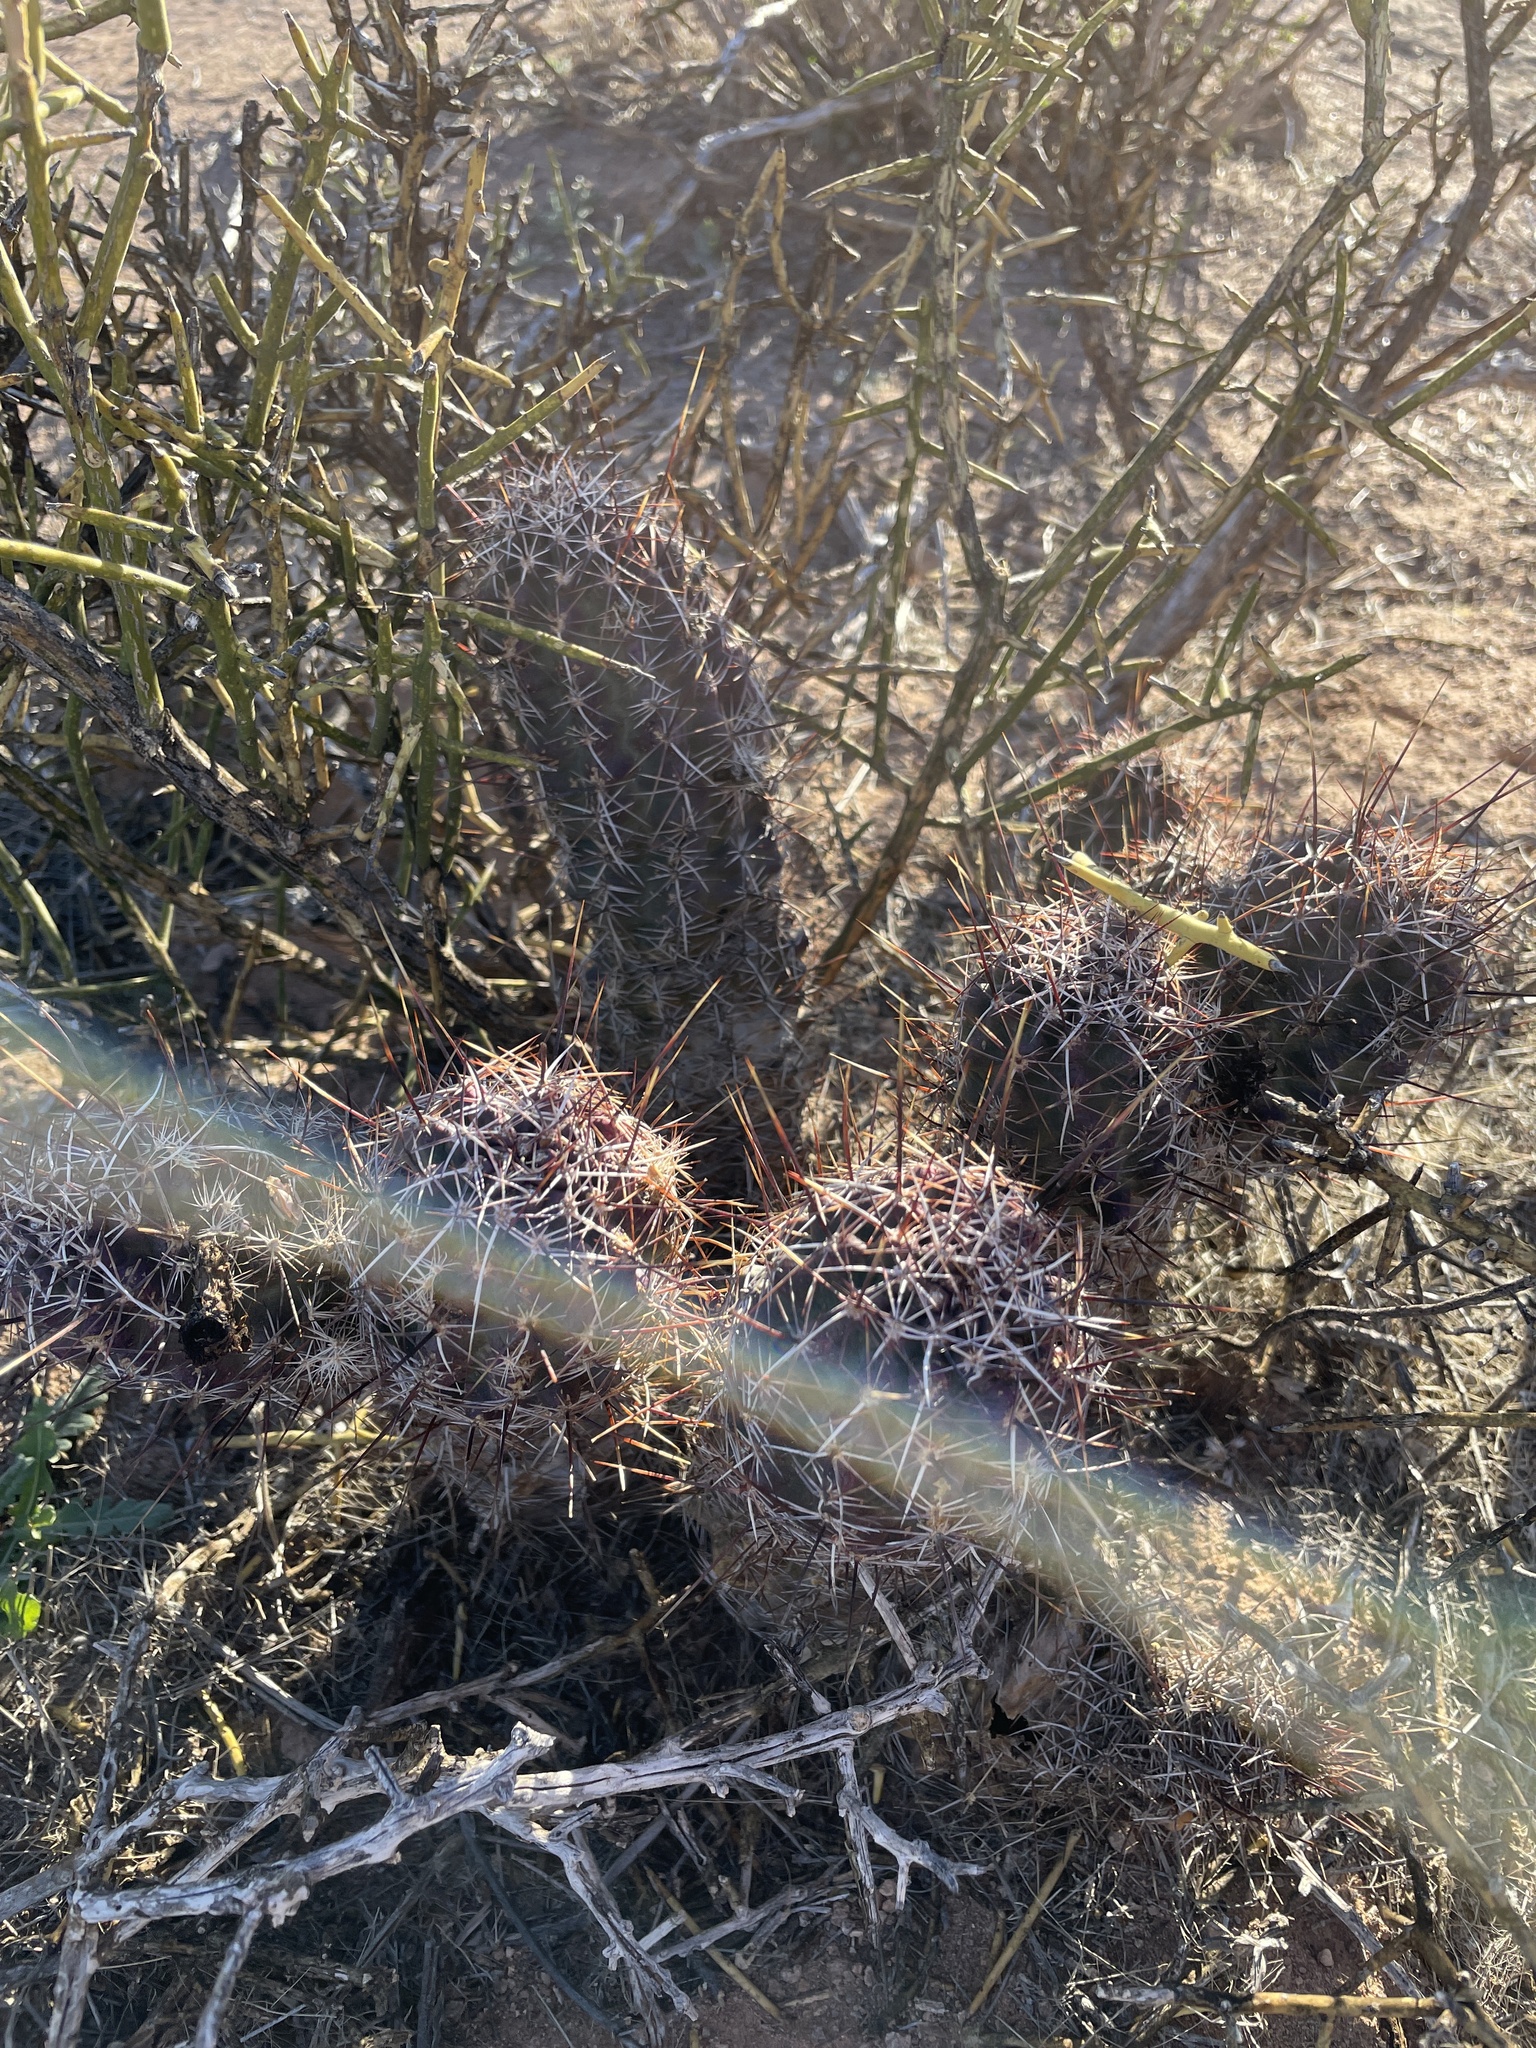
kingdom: Plantae
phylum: Tracheophyta
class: Magnoliopsida
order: Caryophyllales
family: Cactaceae
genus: Echinocereus
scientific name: Echinocereus fendleri
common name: Fendler's hedgehog cactus
